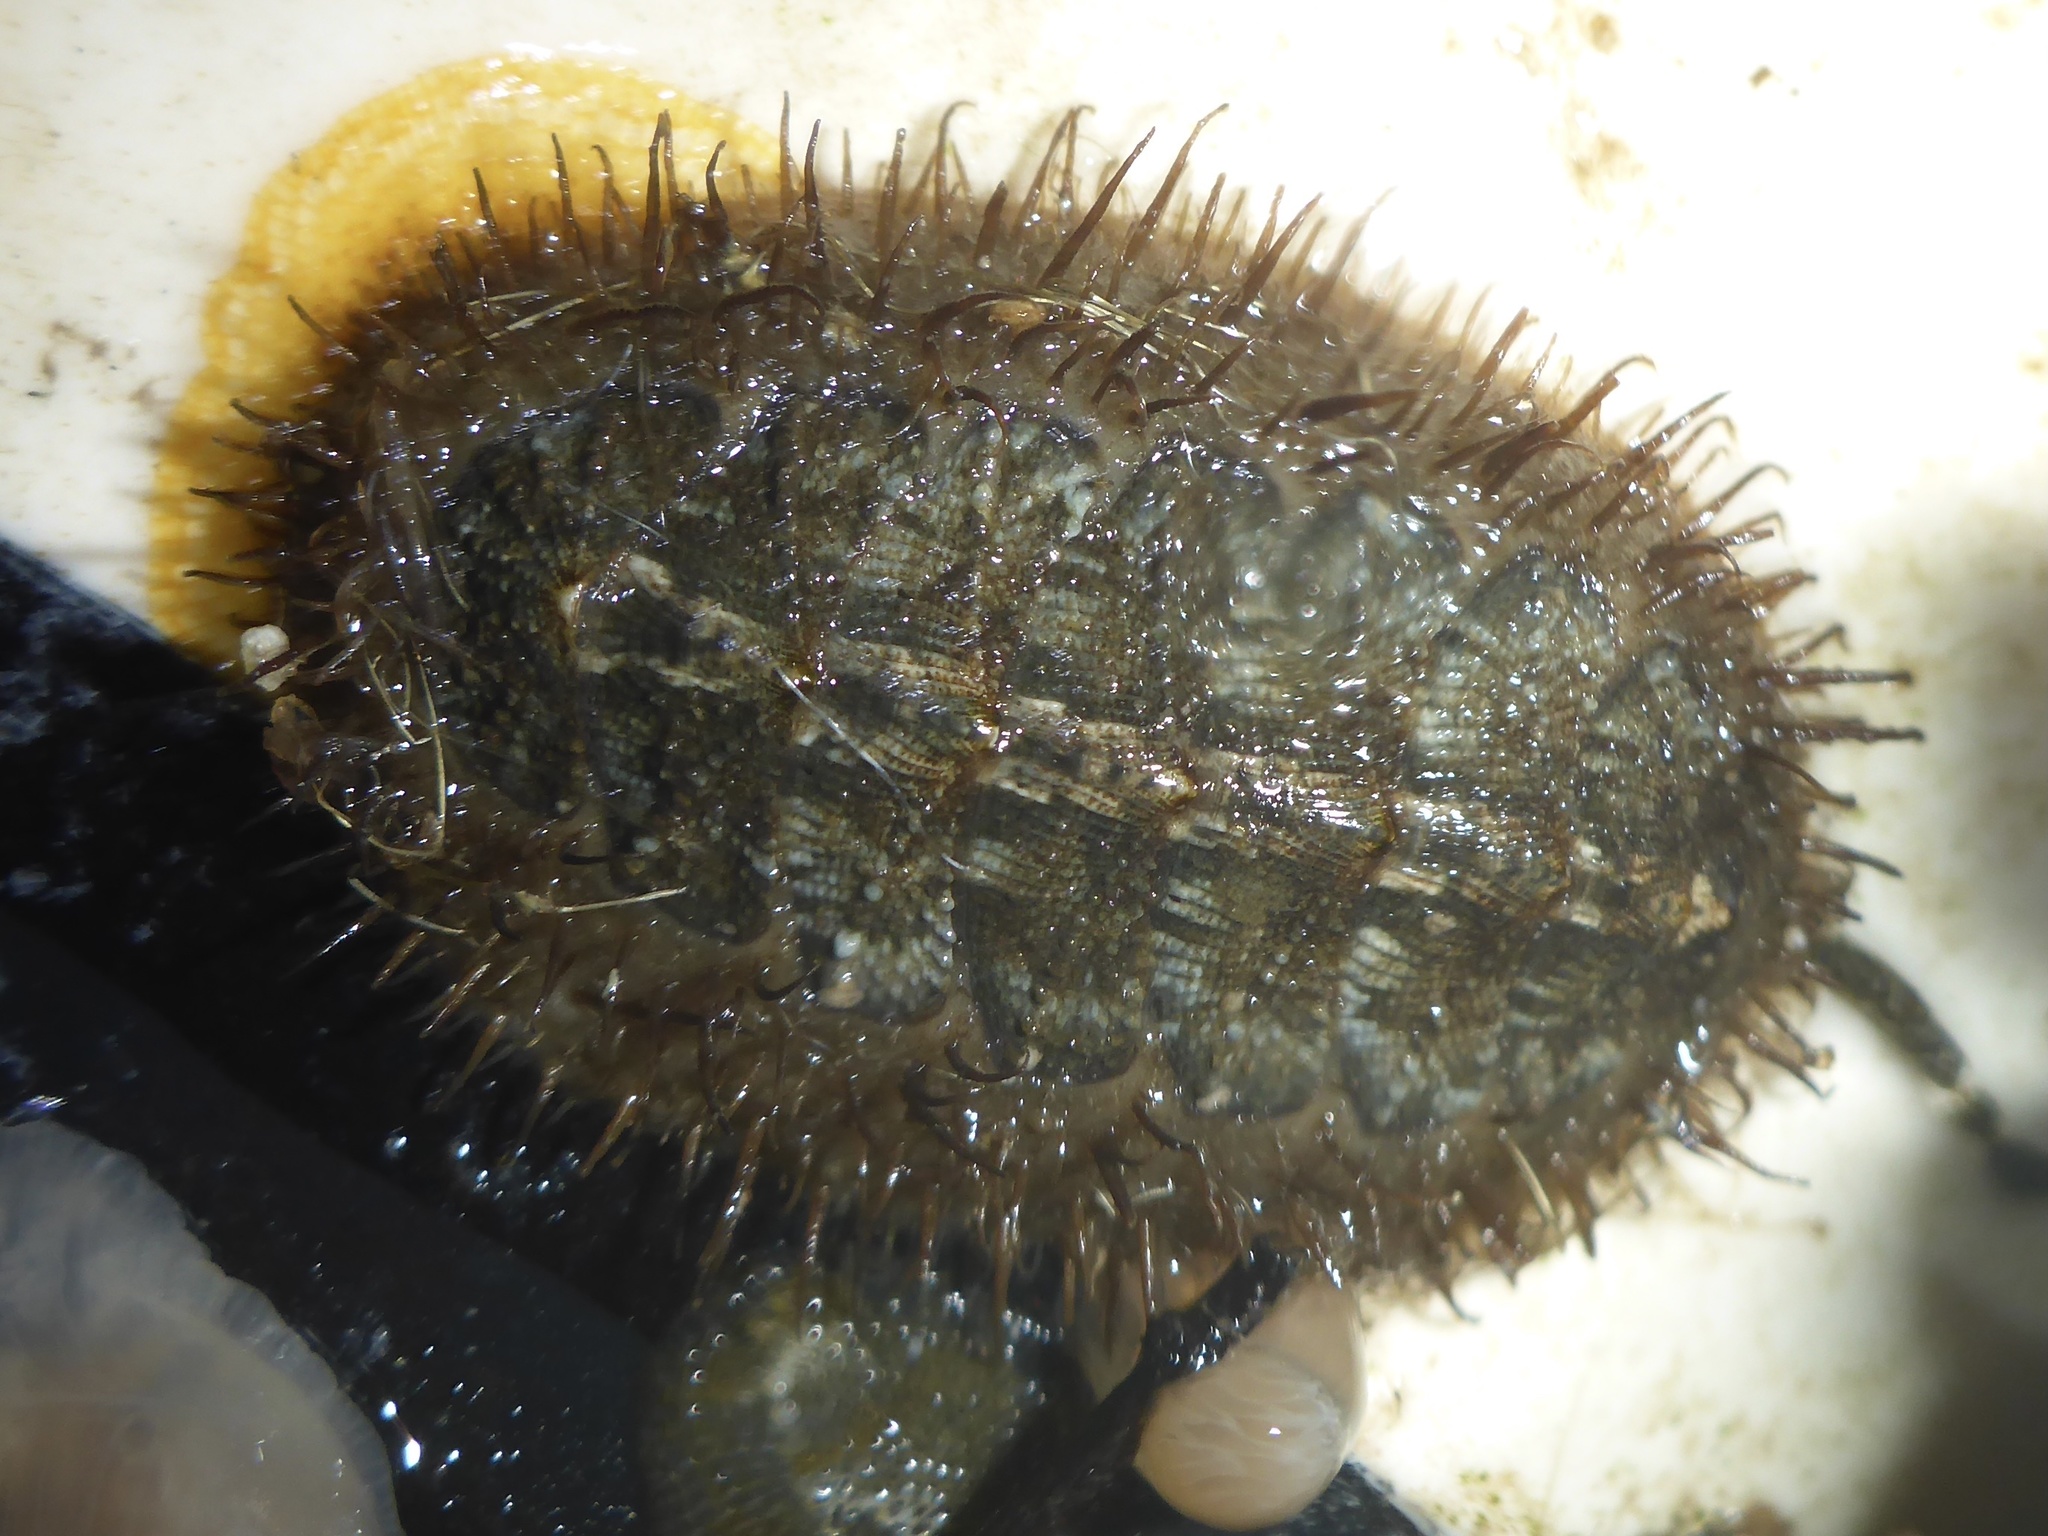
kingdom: Animalia
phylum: Mollusca
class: Polyplacophora
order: Chitonida
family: Mopaliidae
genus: Mopalia
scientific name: Mopalia muscosa
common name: Mossy chiton
